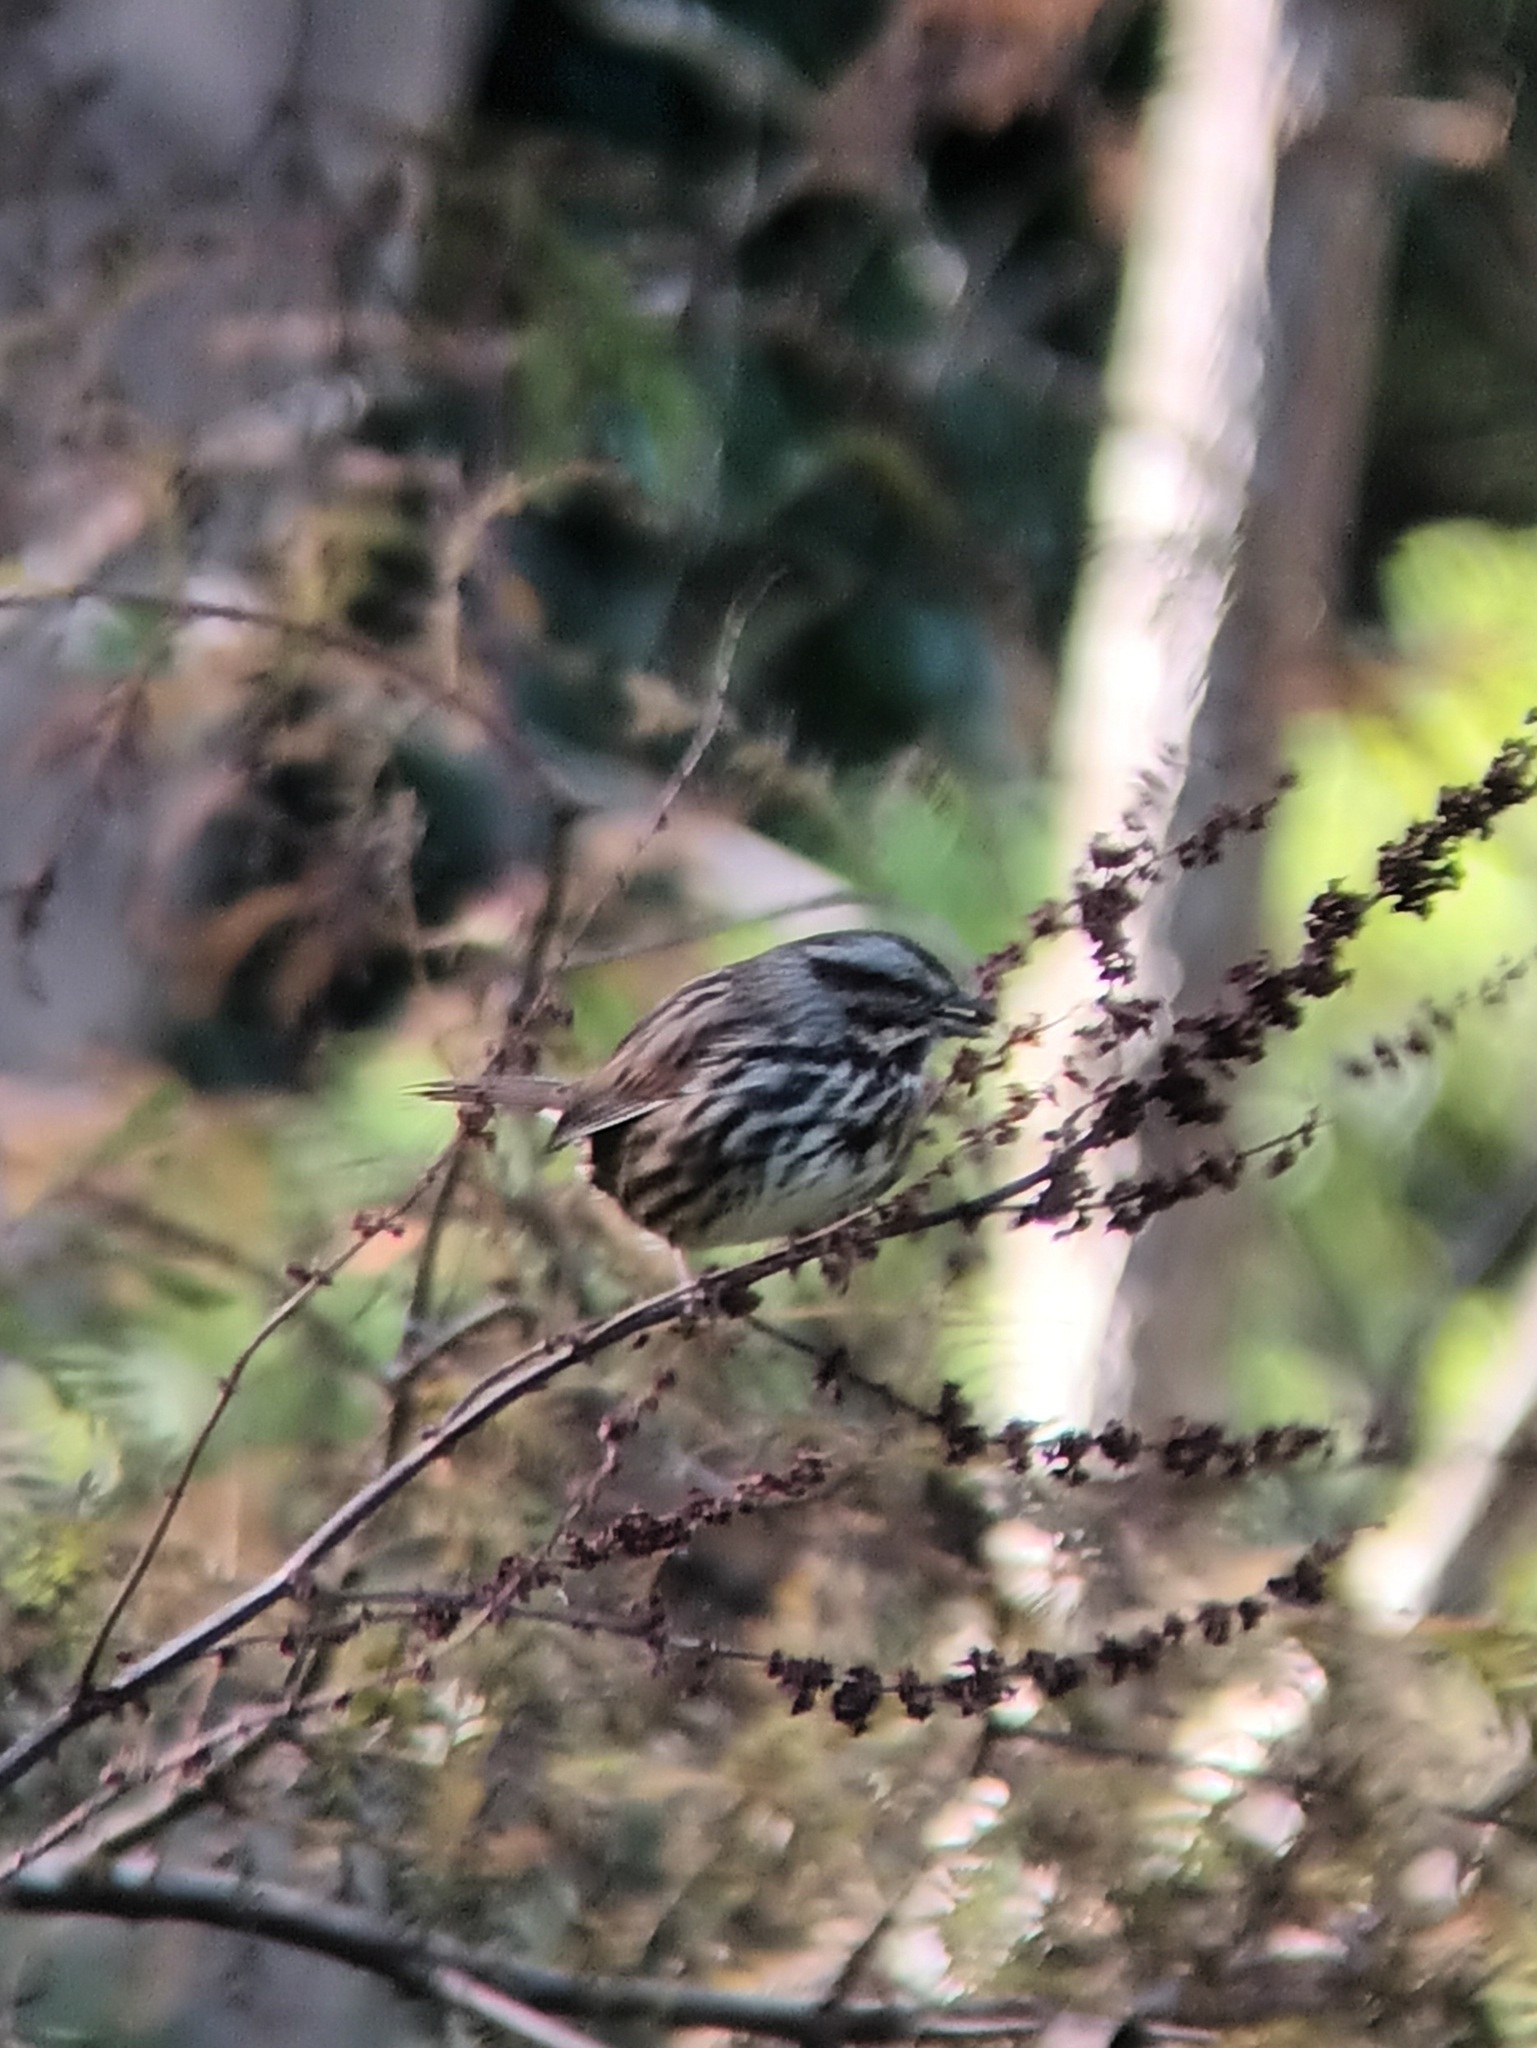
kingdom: Animalia
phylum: Chordata
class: Aves
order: Passeriformes
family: Passerellidae
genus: Melospiza
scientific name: Melospiza melodia
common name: Song sparrow
